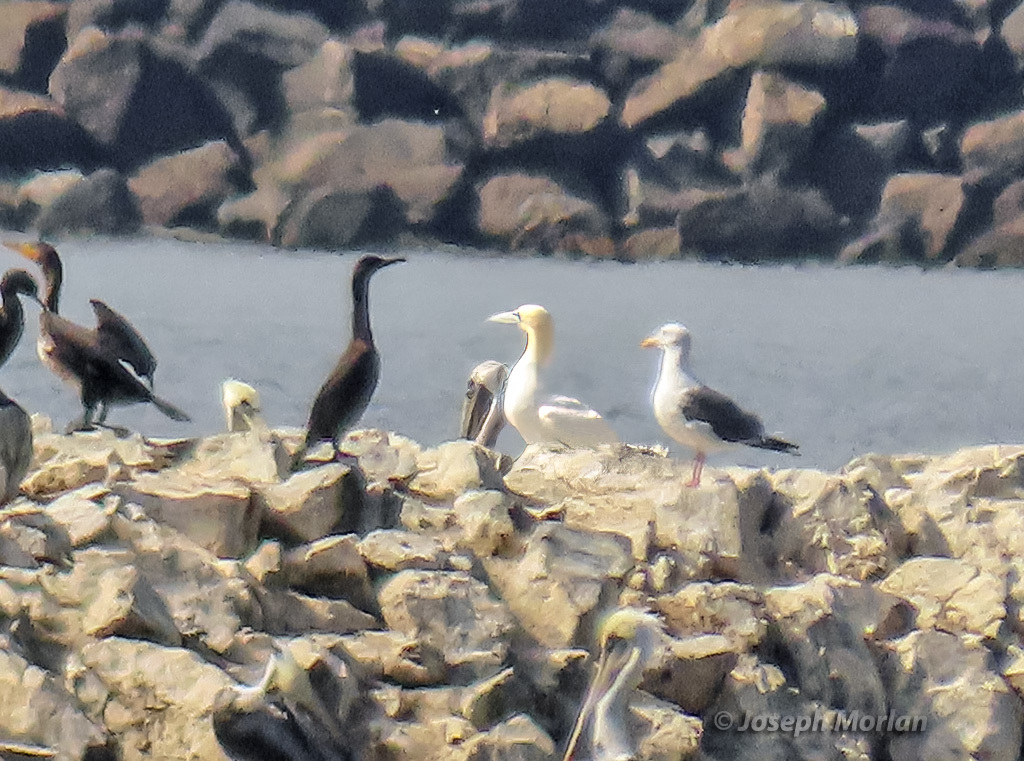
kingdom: Animalia
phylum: Chordata
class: Aves
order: Suliformes
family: Sulidae
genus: Morus
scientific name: Morus bassanus
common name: Northern gannet
